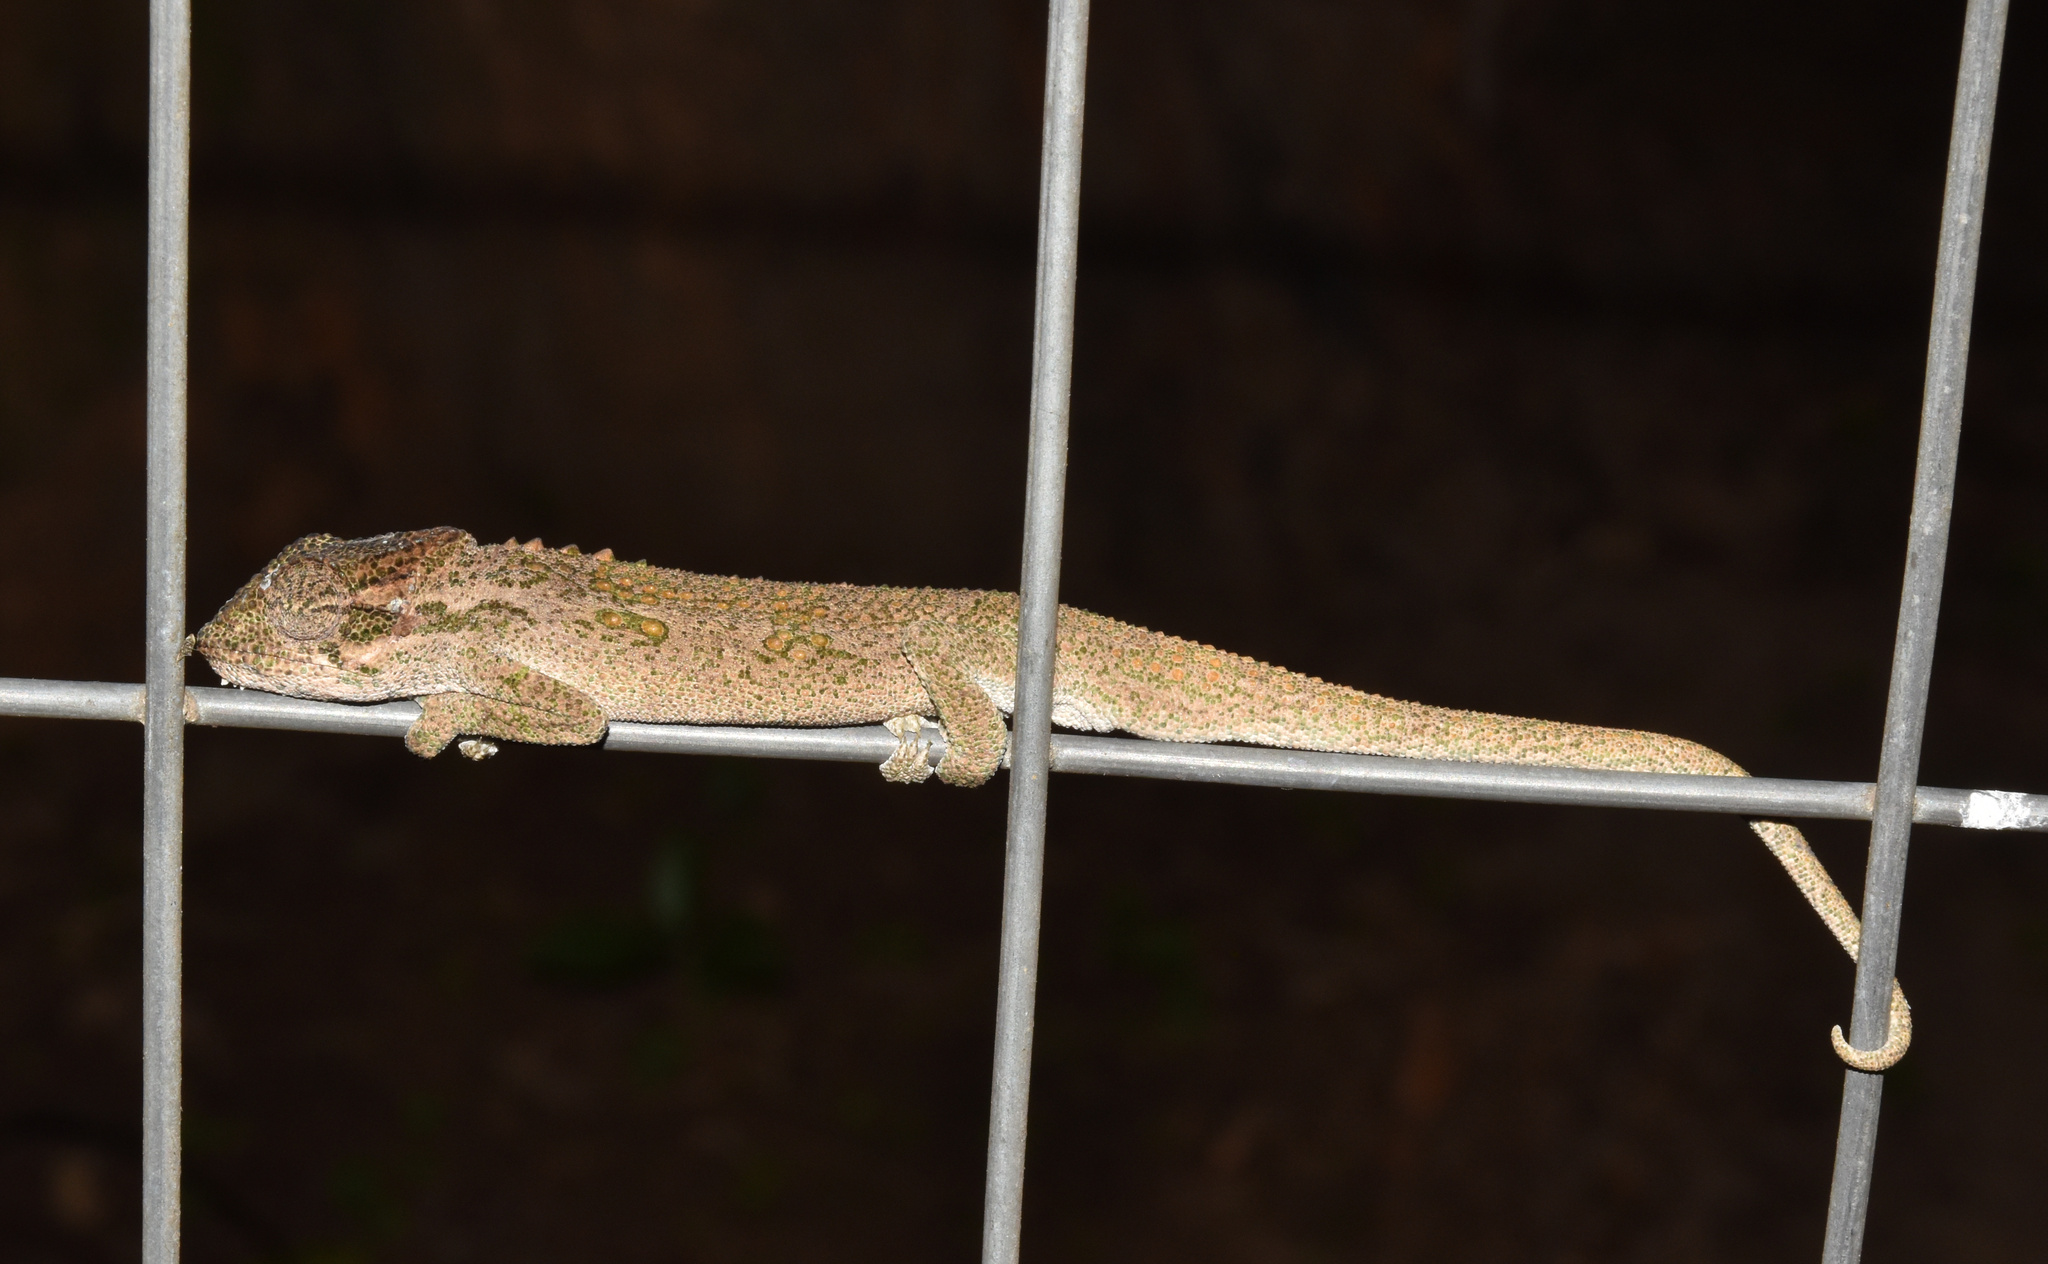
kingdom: Animalia
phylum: Chordata
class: Squamata
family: Chamaeleonidae
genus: Bradypodion
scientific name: Bradypodion melanocephalum
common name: Black-headed dwarf chameleon
